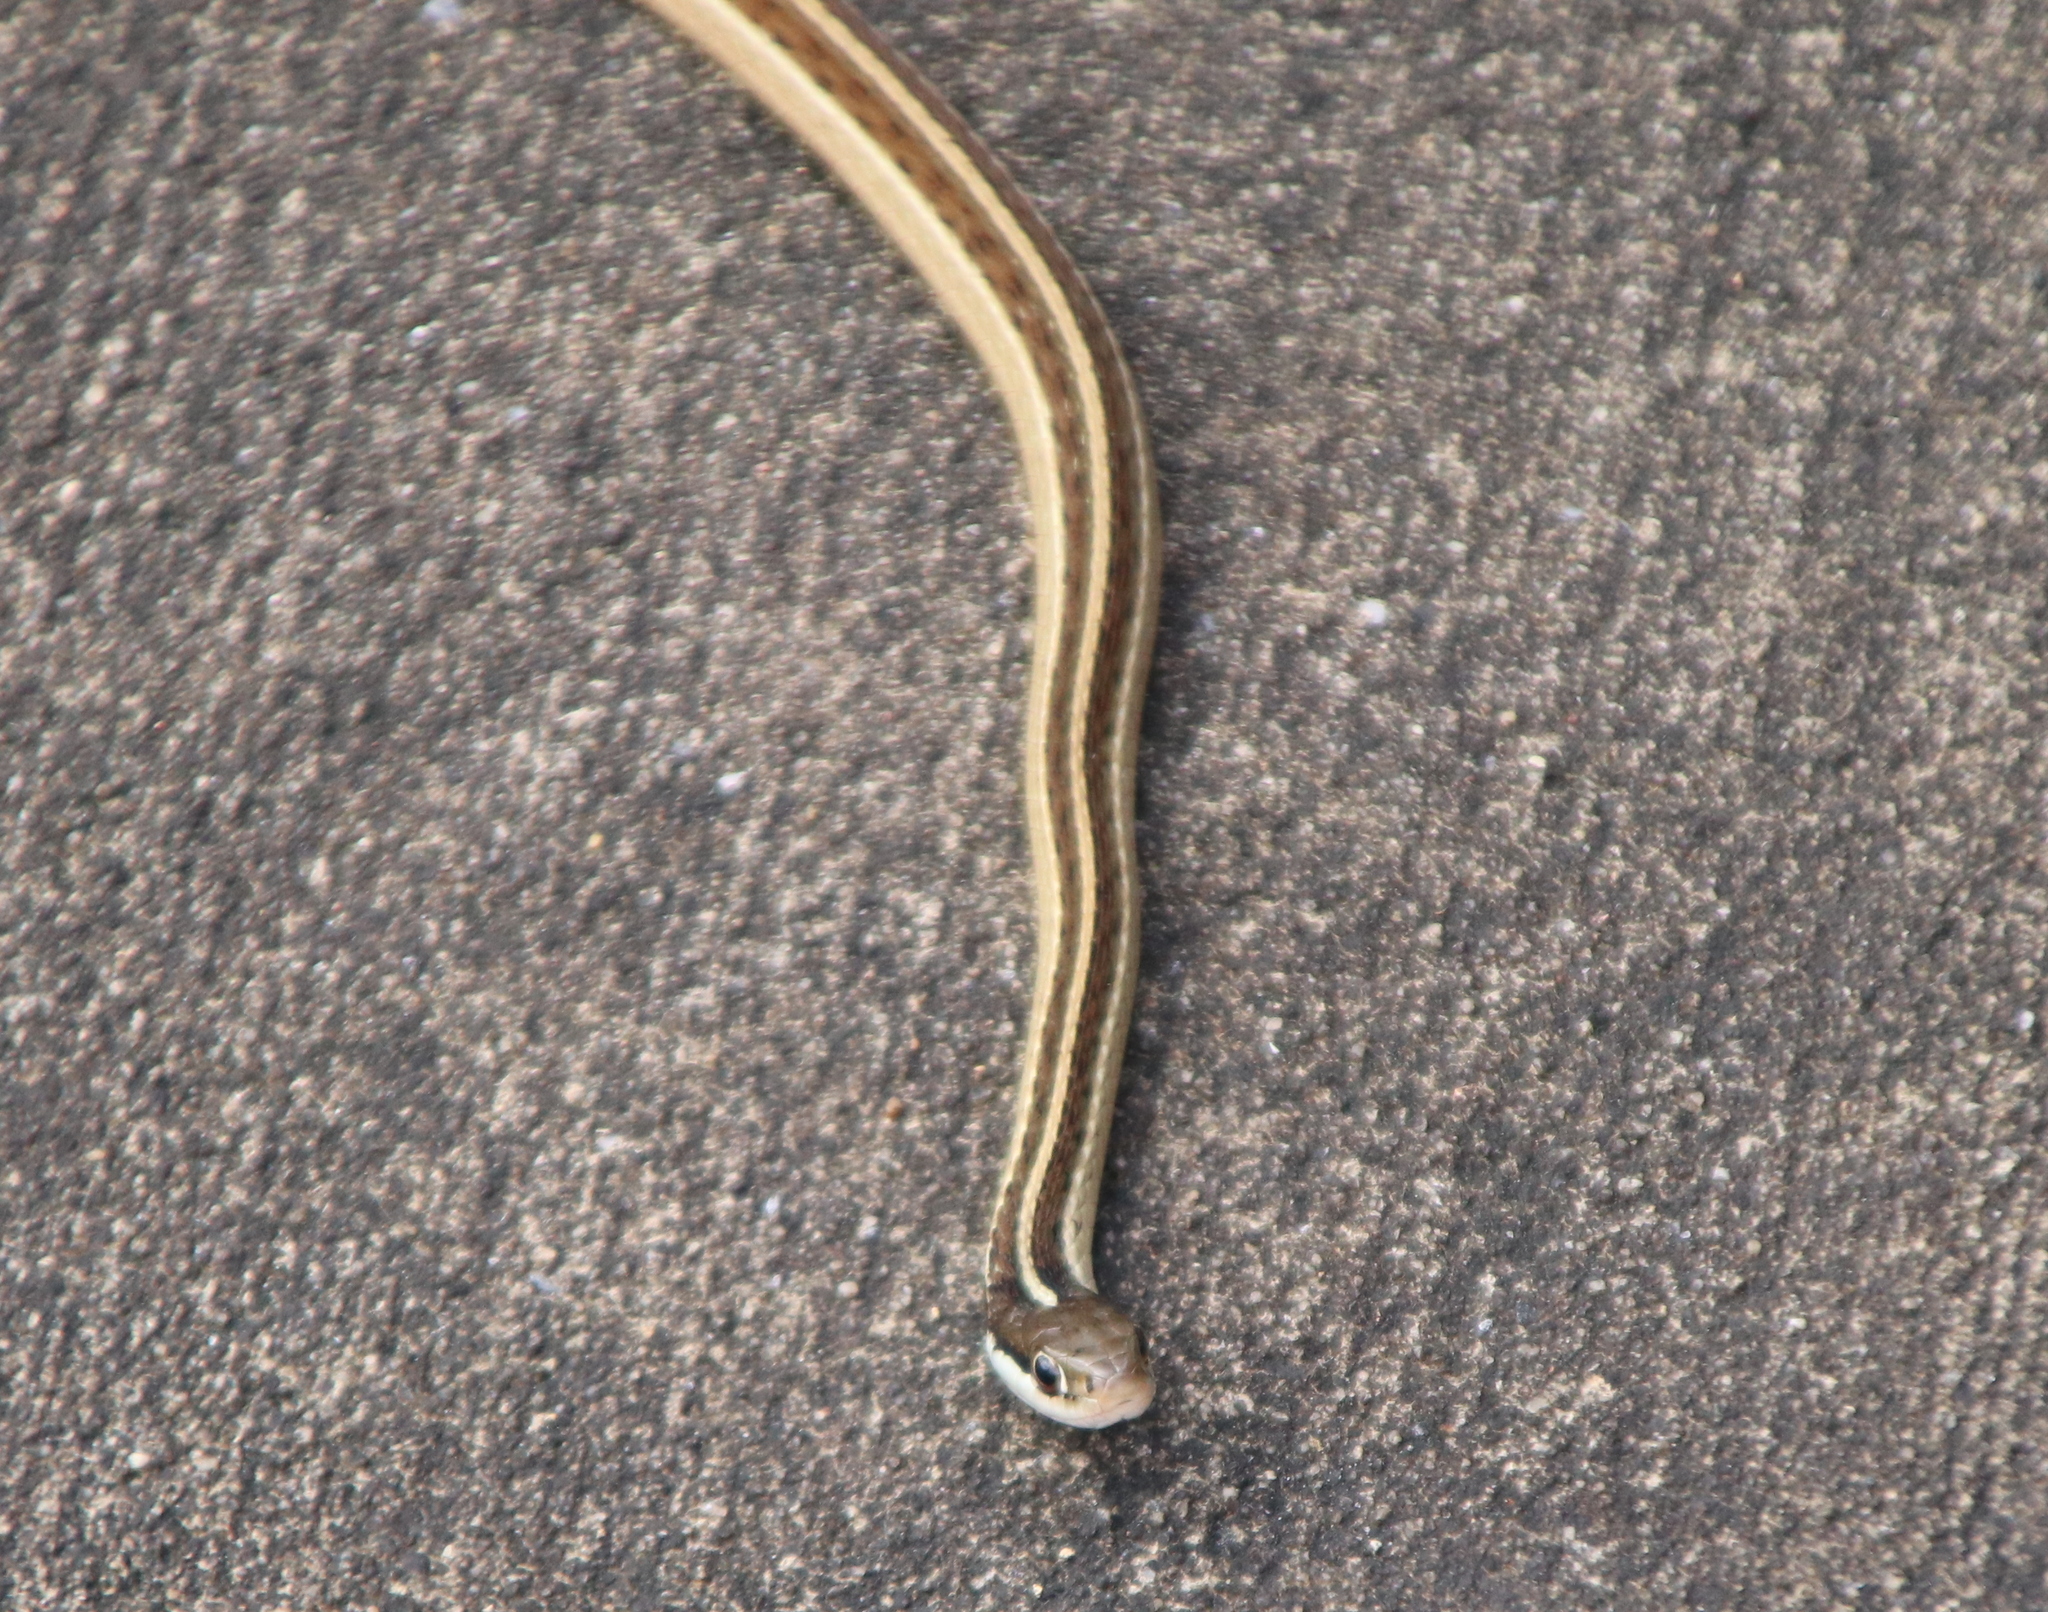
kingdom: Animalia
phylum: Chordata
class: Squamata
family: Colubridae
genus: Thamnophis
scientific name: Thamnophis saurita
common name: Eastern ribbonsnake
